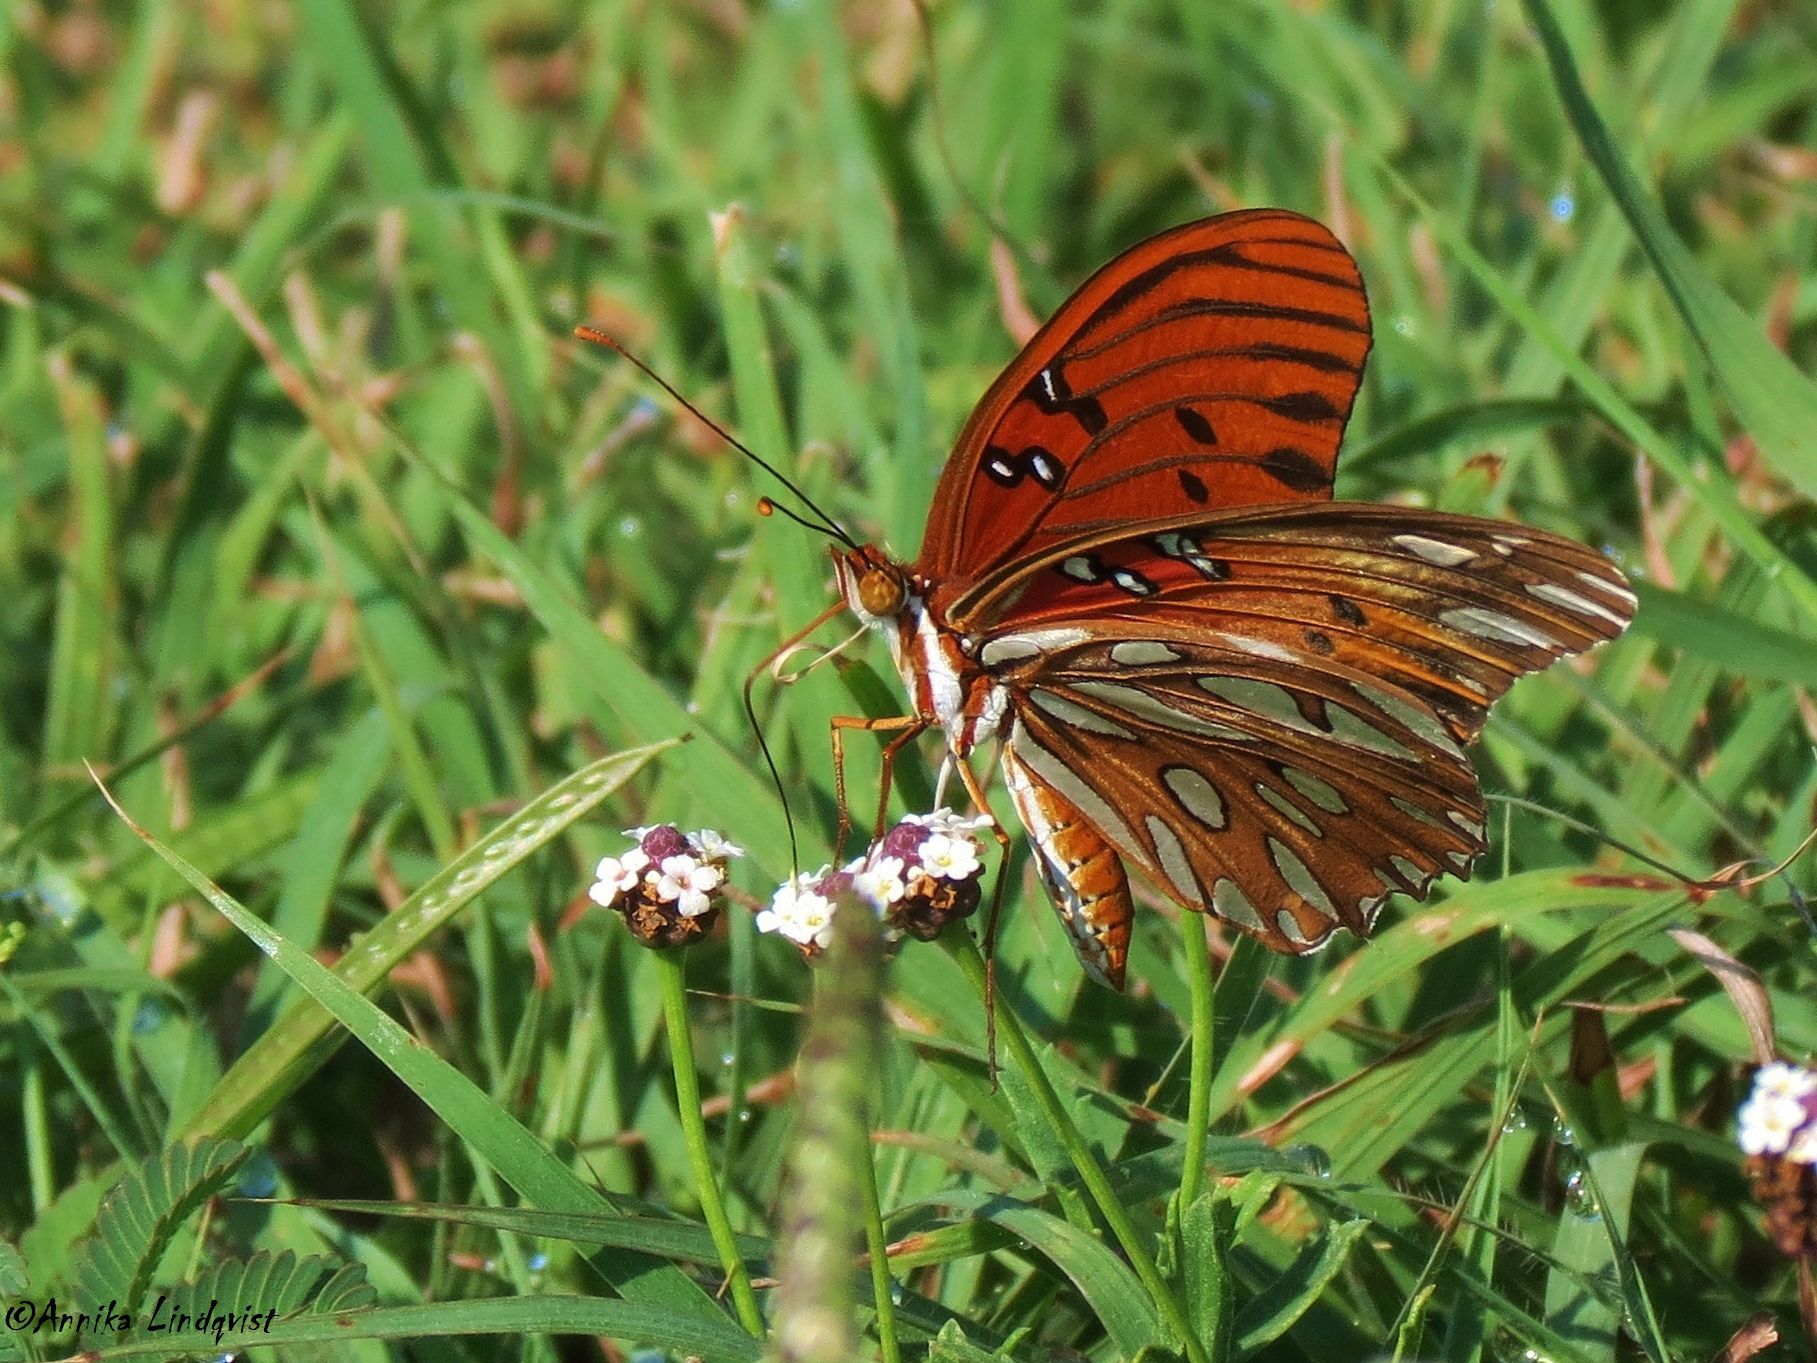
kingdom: Animalia
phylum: Arthropoda
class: Insecta
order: Lepidoptera
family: Nymphalidae
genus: Dione
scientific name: Dione vanillae
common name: Gulf fritillary
